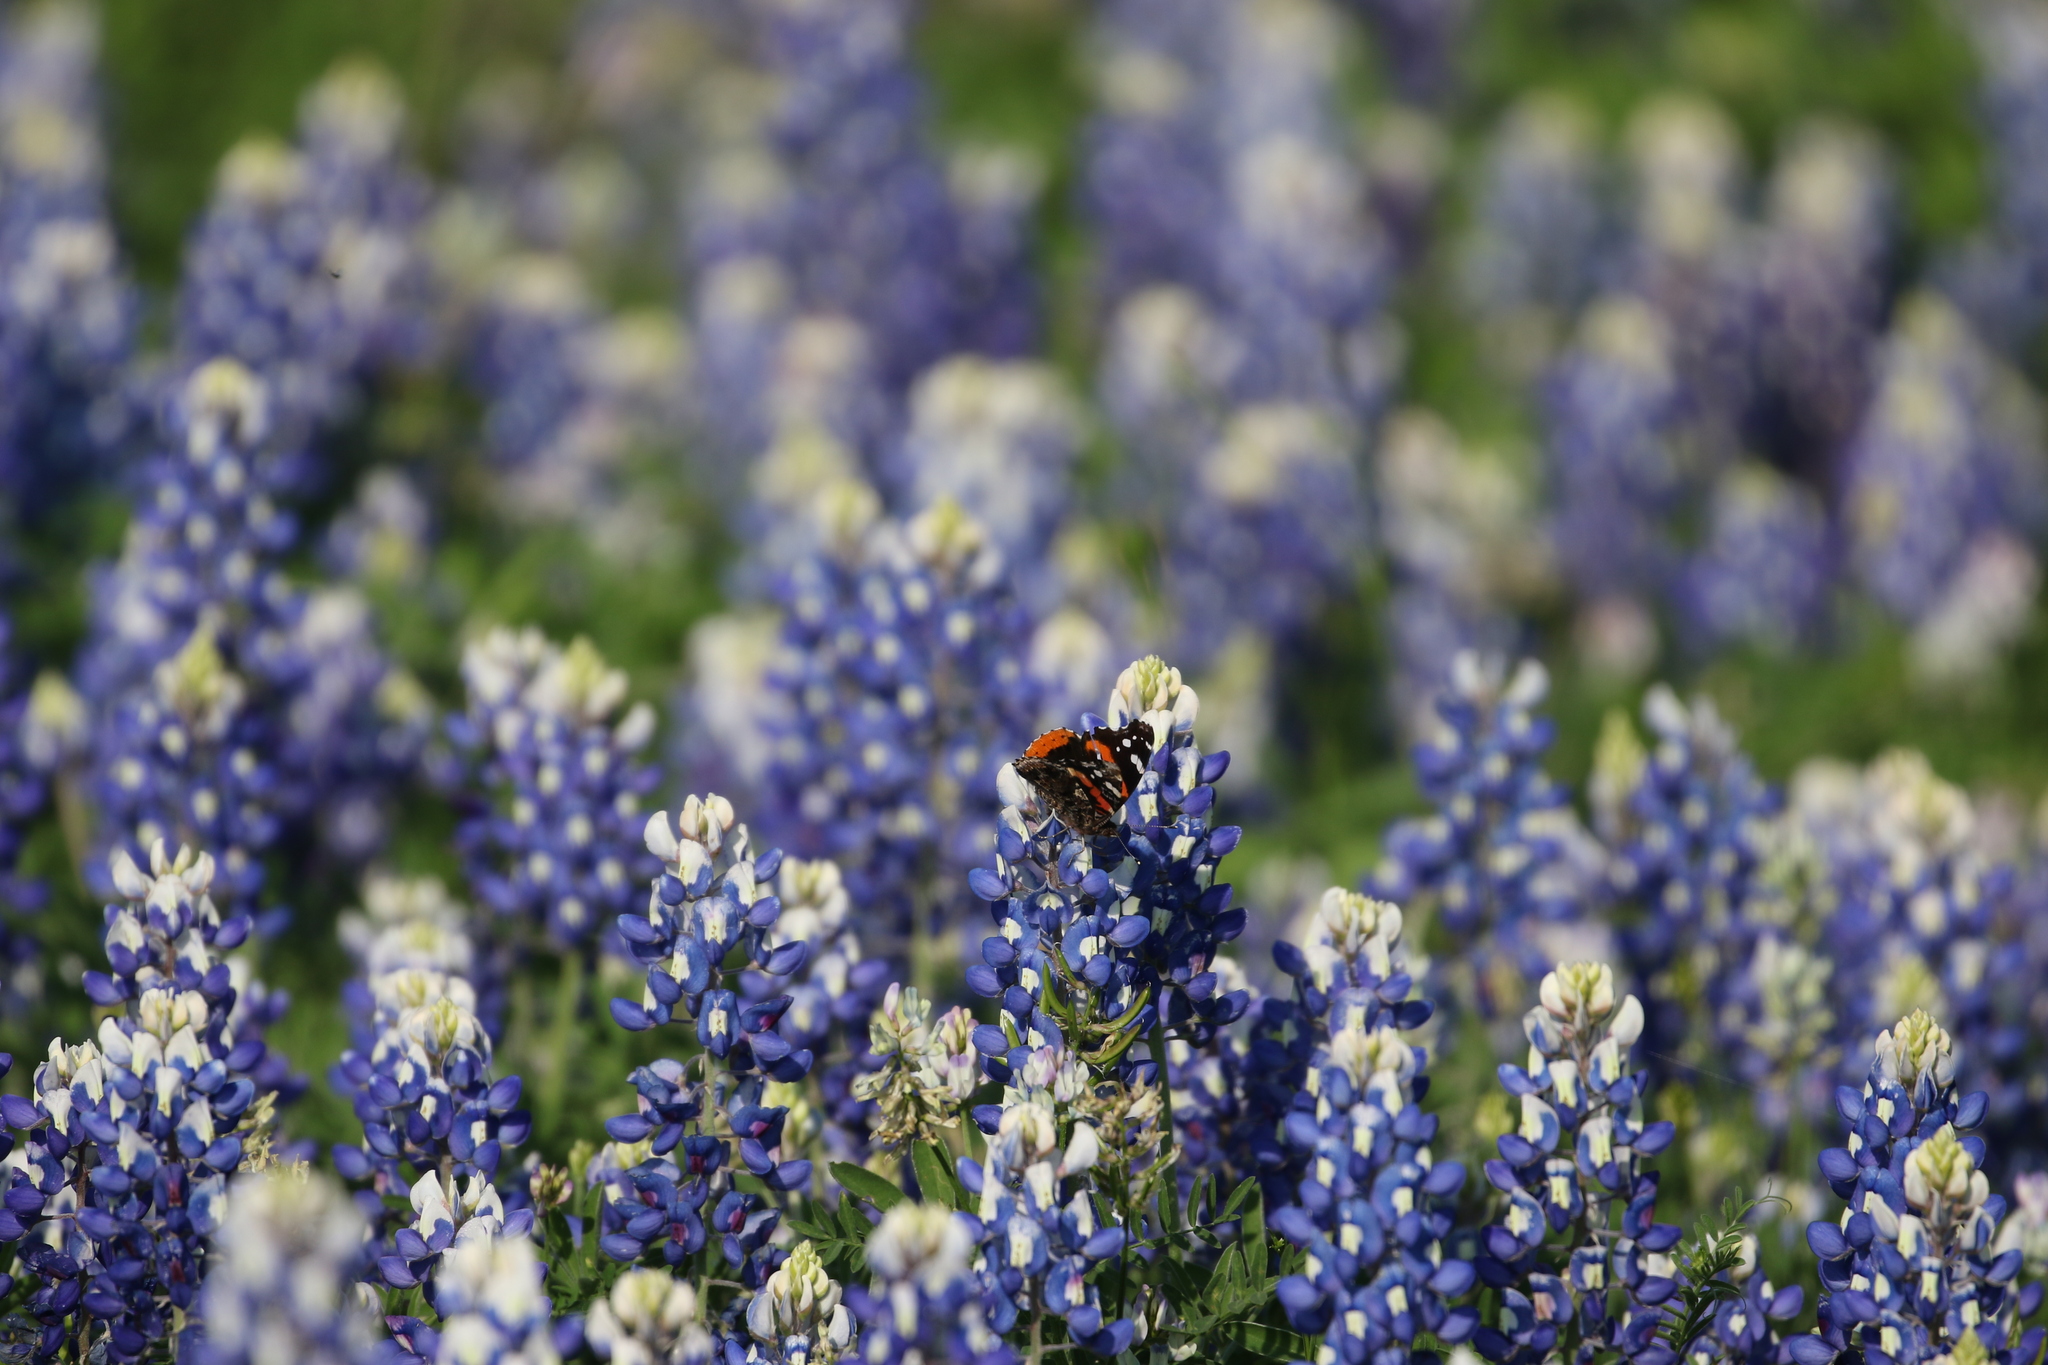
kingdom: Plantae
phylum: Tracheophyta
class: Magnoliopsida
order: Fabales
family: Fabaceae
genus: Lupinus
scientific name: Lupinus texensis
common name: Texas bluebonnet
